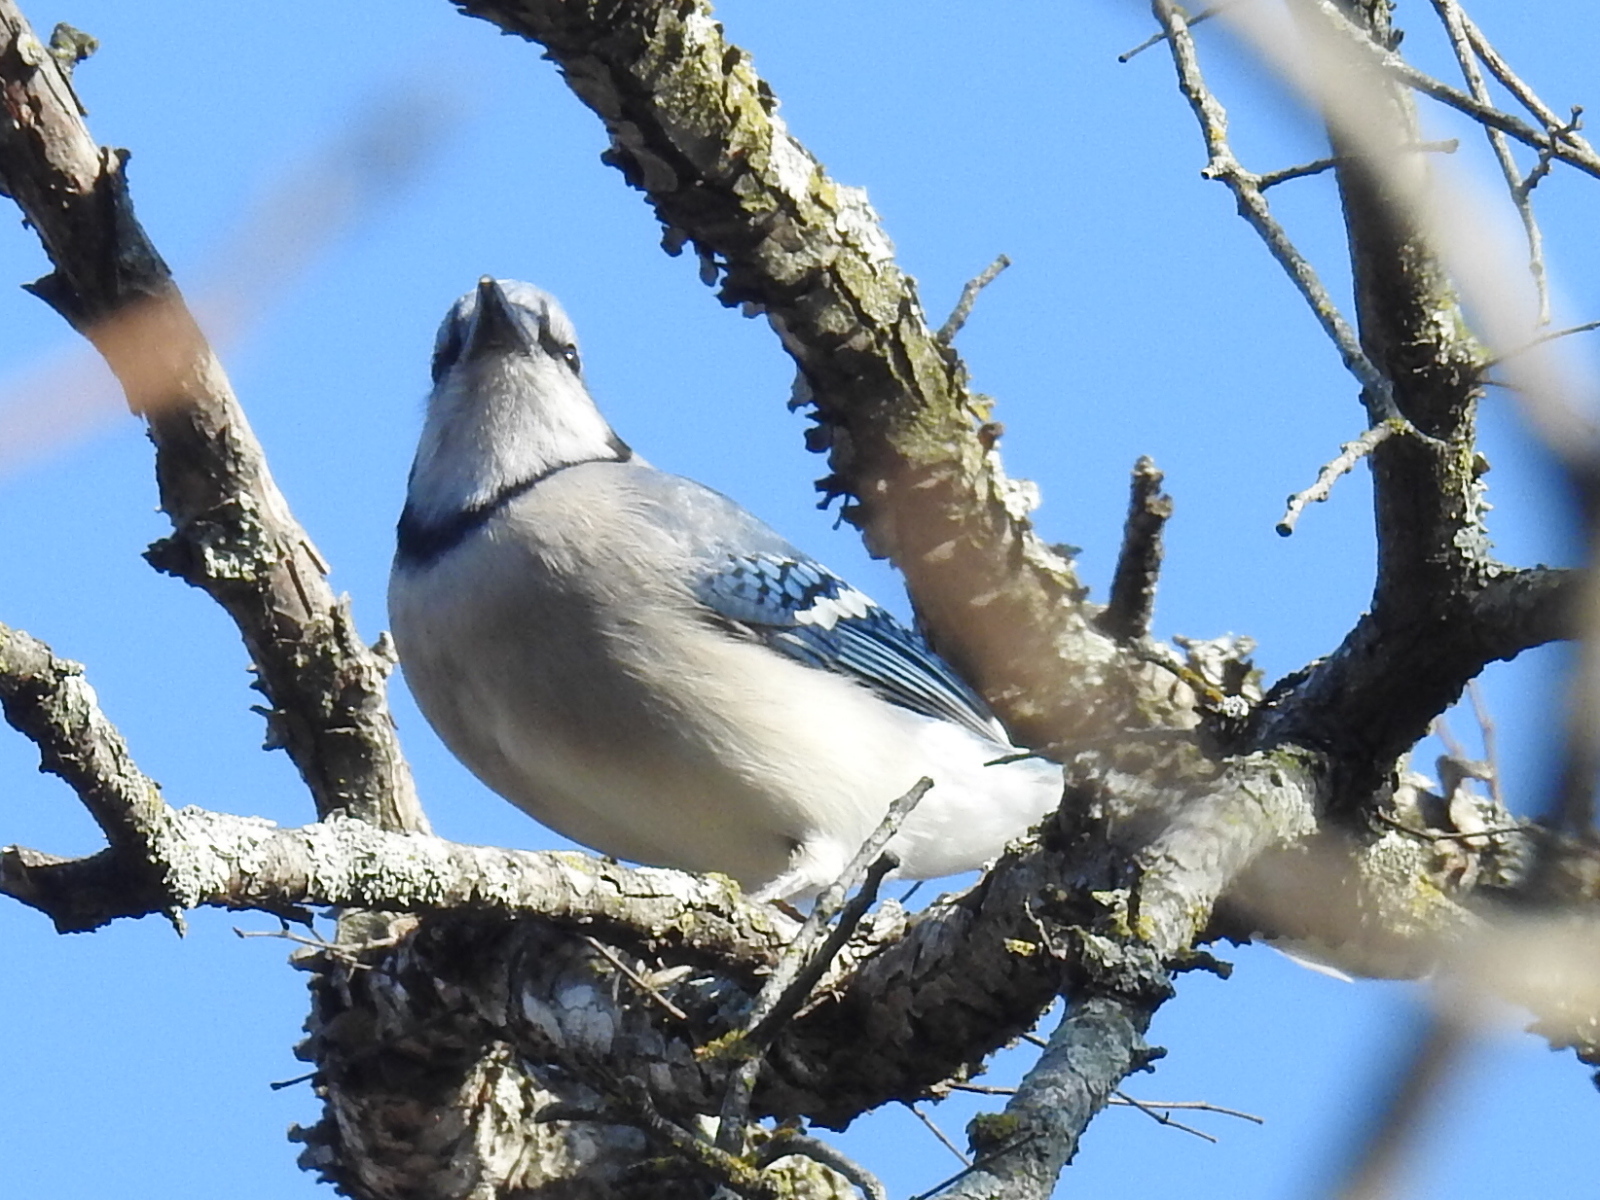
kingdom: Animalia
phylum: Chordata
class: Aves
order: Passeriformes
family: Corvidae
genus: Cyanocitta
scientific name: Cyanocitta cristata
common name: Blue jay
